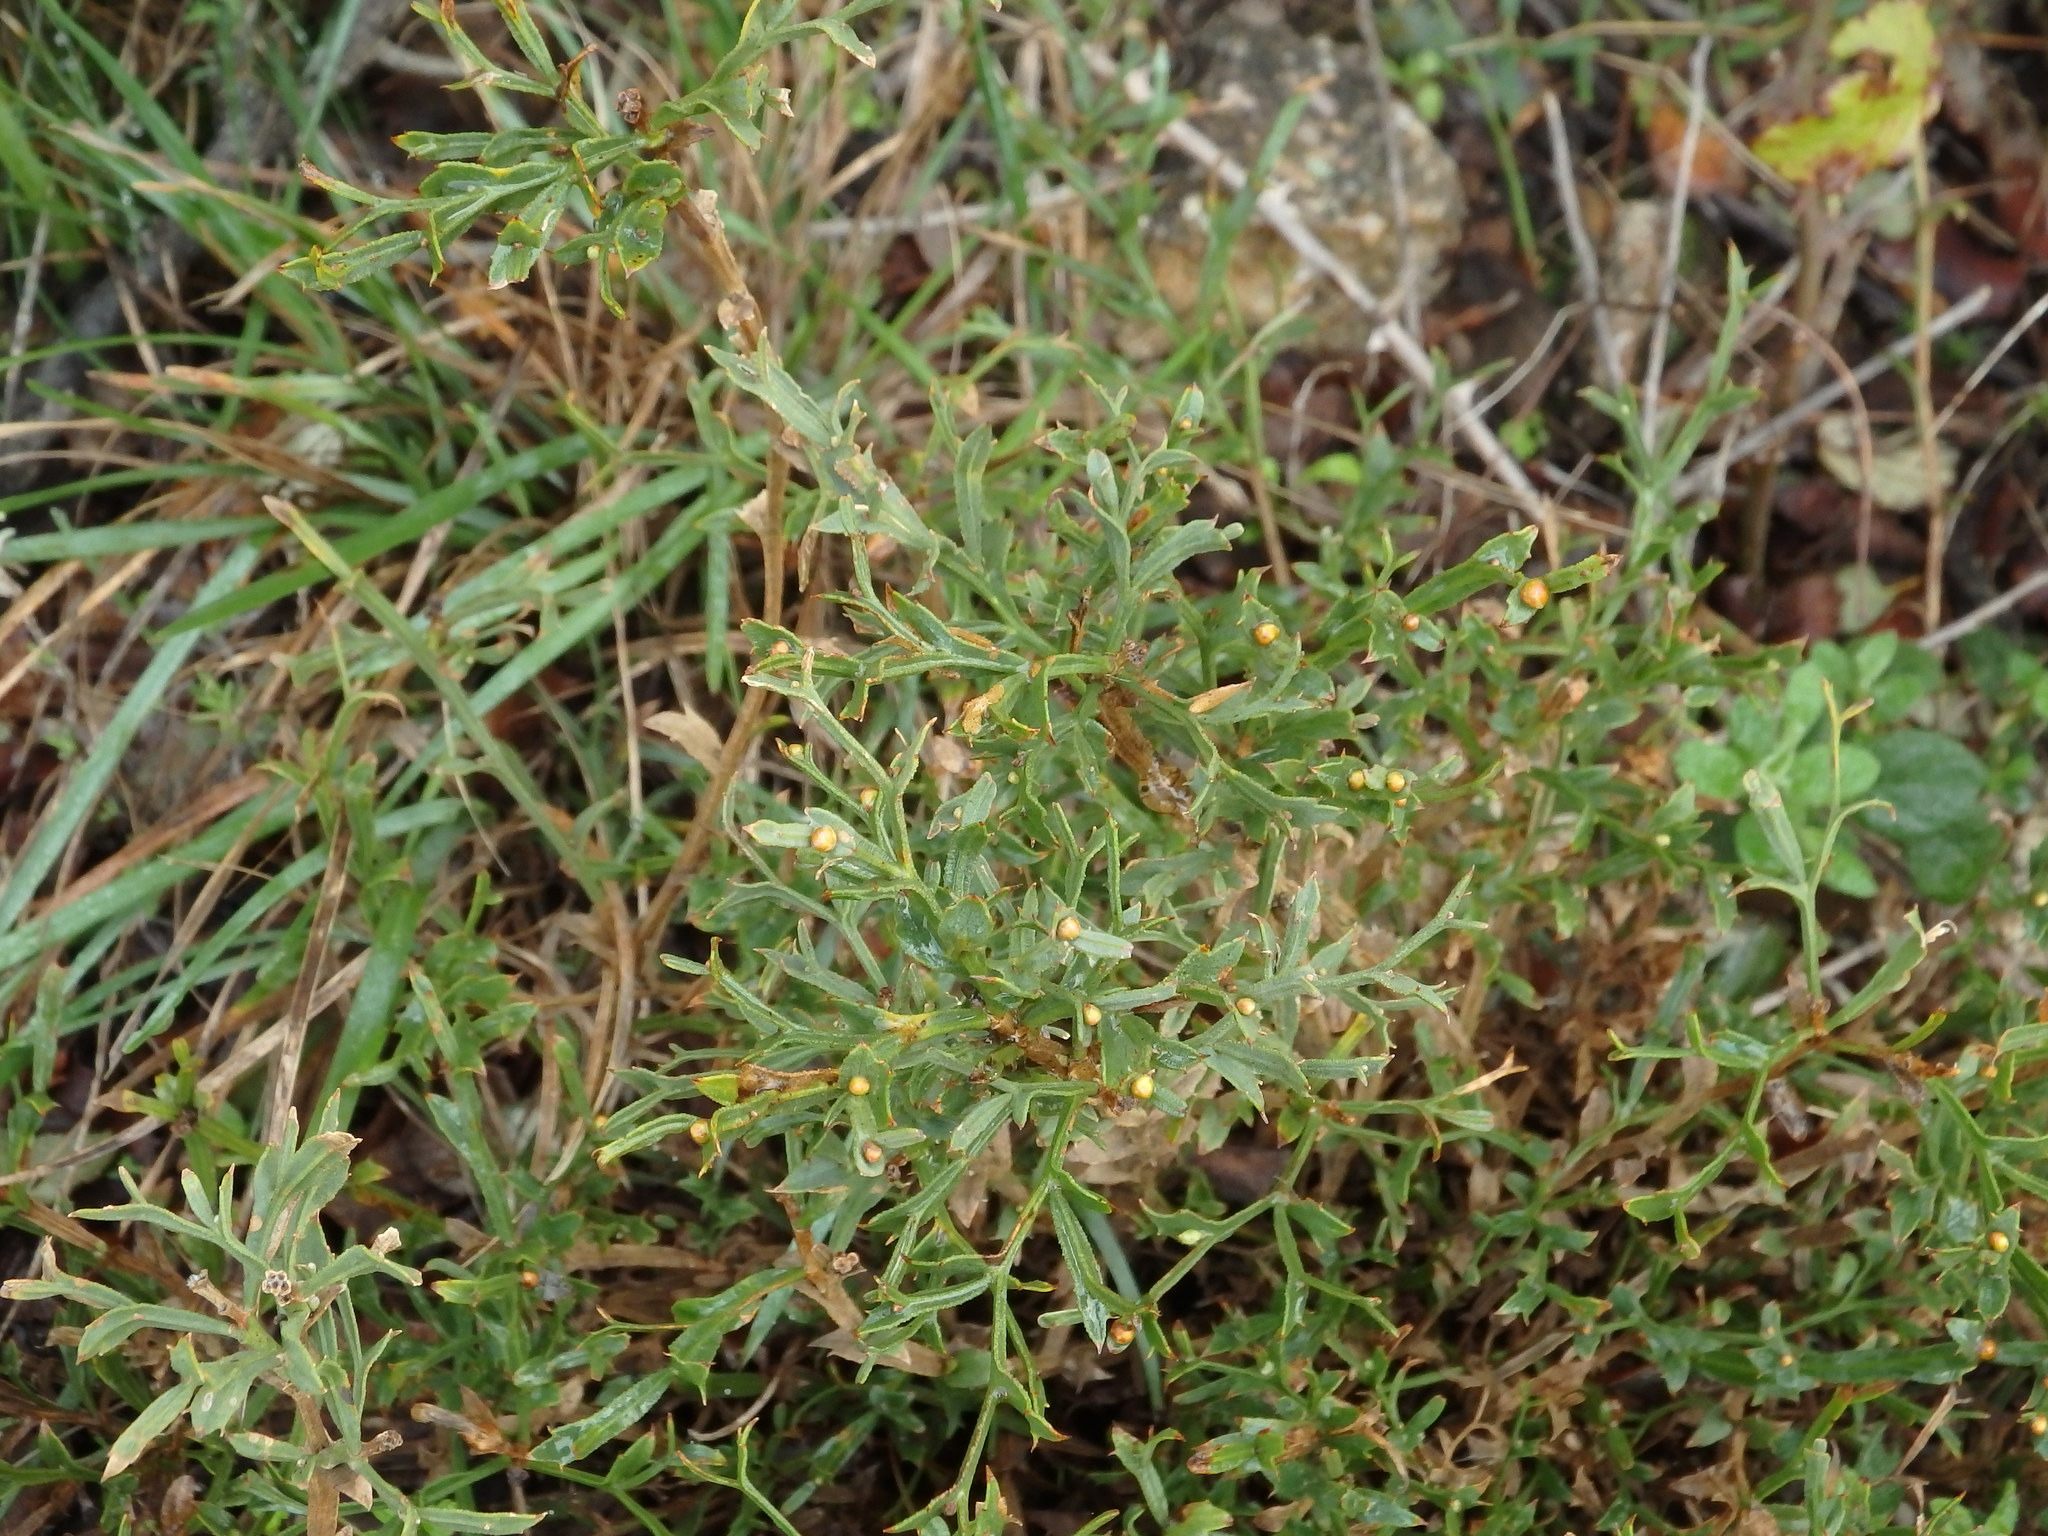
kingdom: Plantae
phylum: Tracheophyta
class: Magnoliopsida
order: Fabales
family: Fabaceae
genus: Genista
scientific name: Genista tridentata
